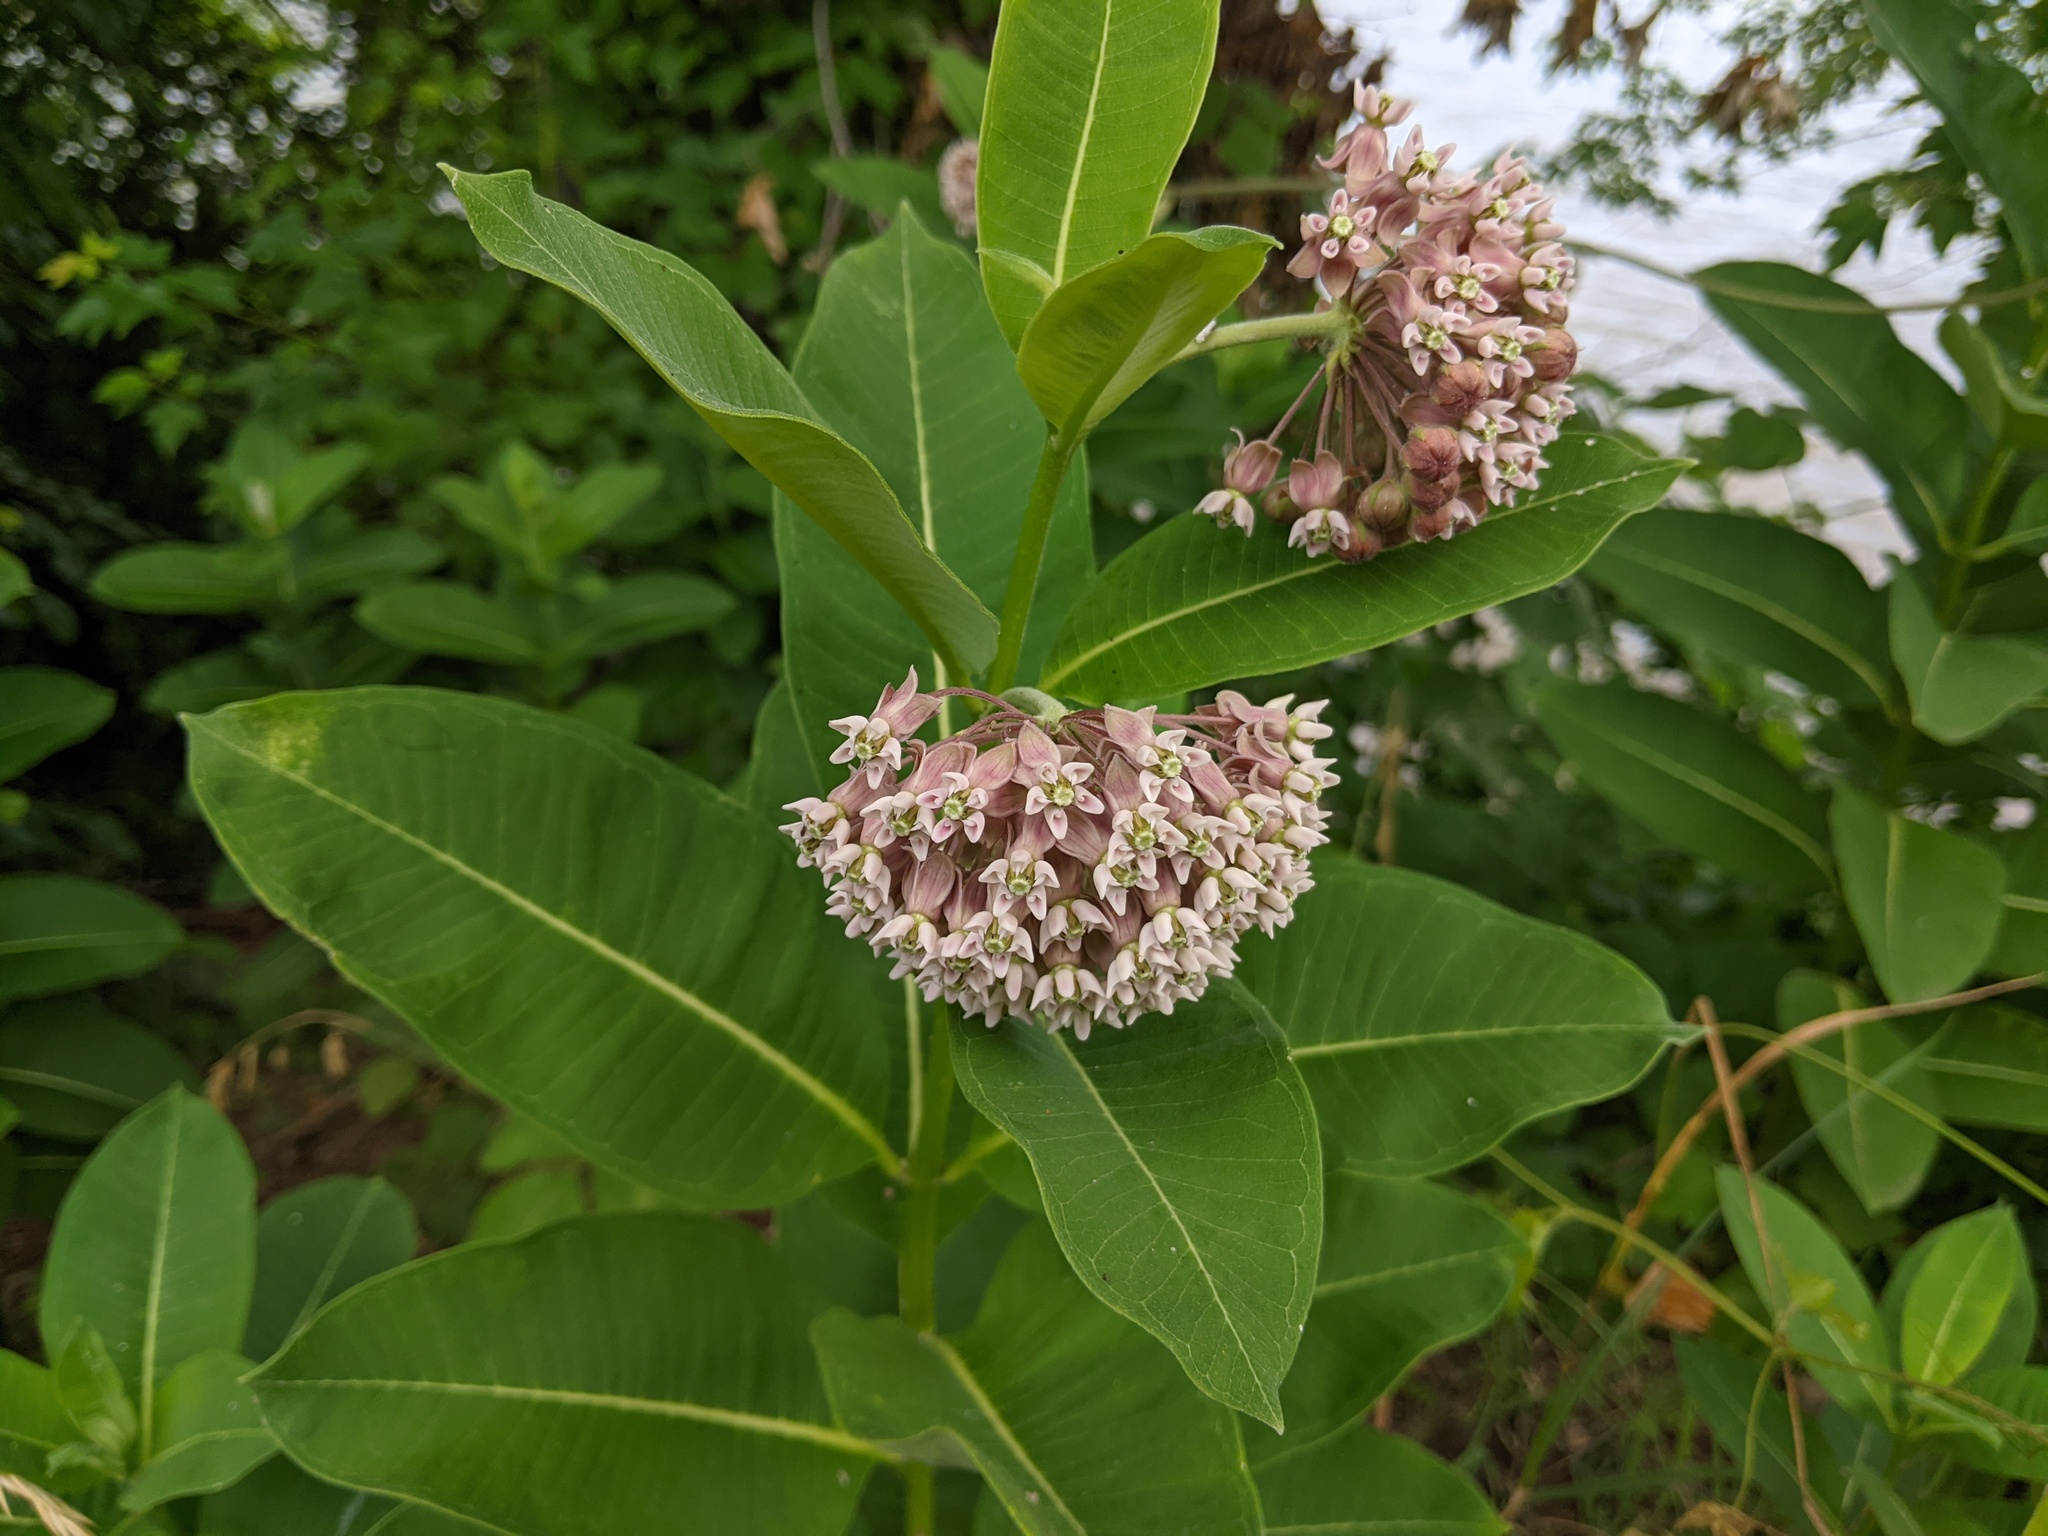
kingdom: Plantae
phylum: Tracheophyta
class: Magnoliopsida
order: Gentianales
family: Apocynaceae
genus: Asclepias
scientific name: Asclepias syriaca
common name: Common milkweed
